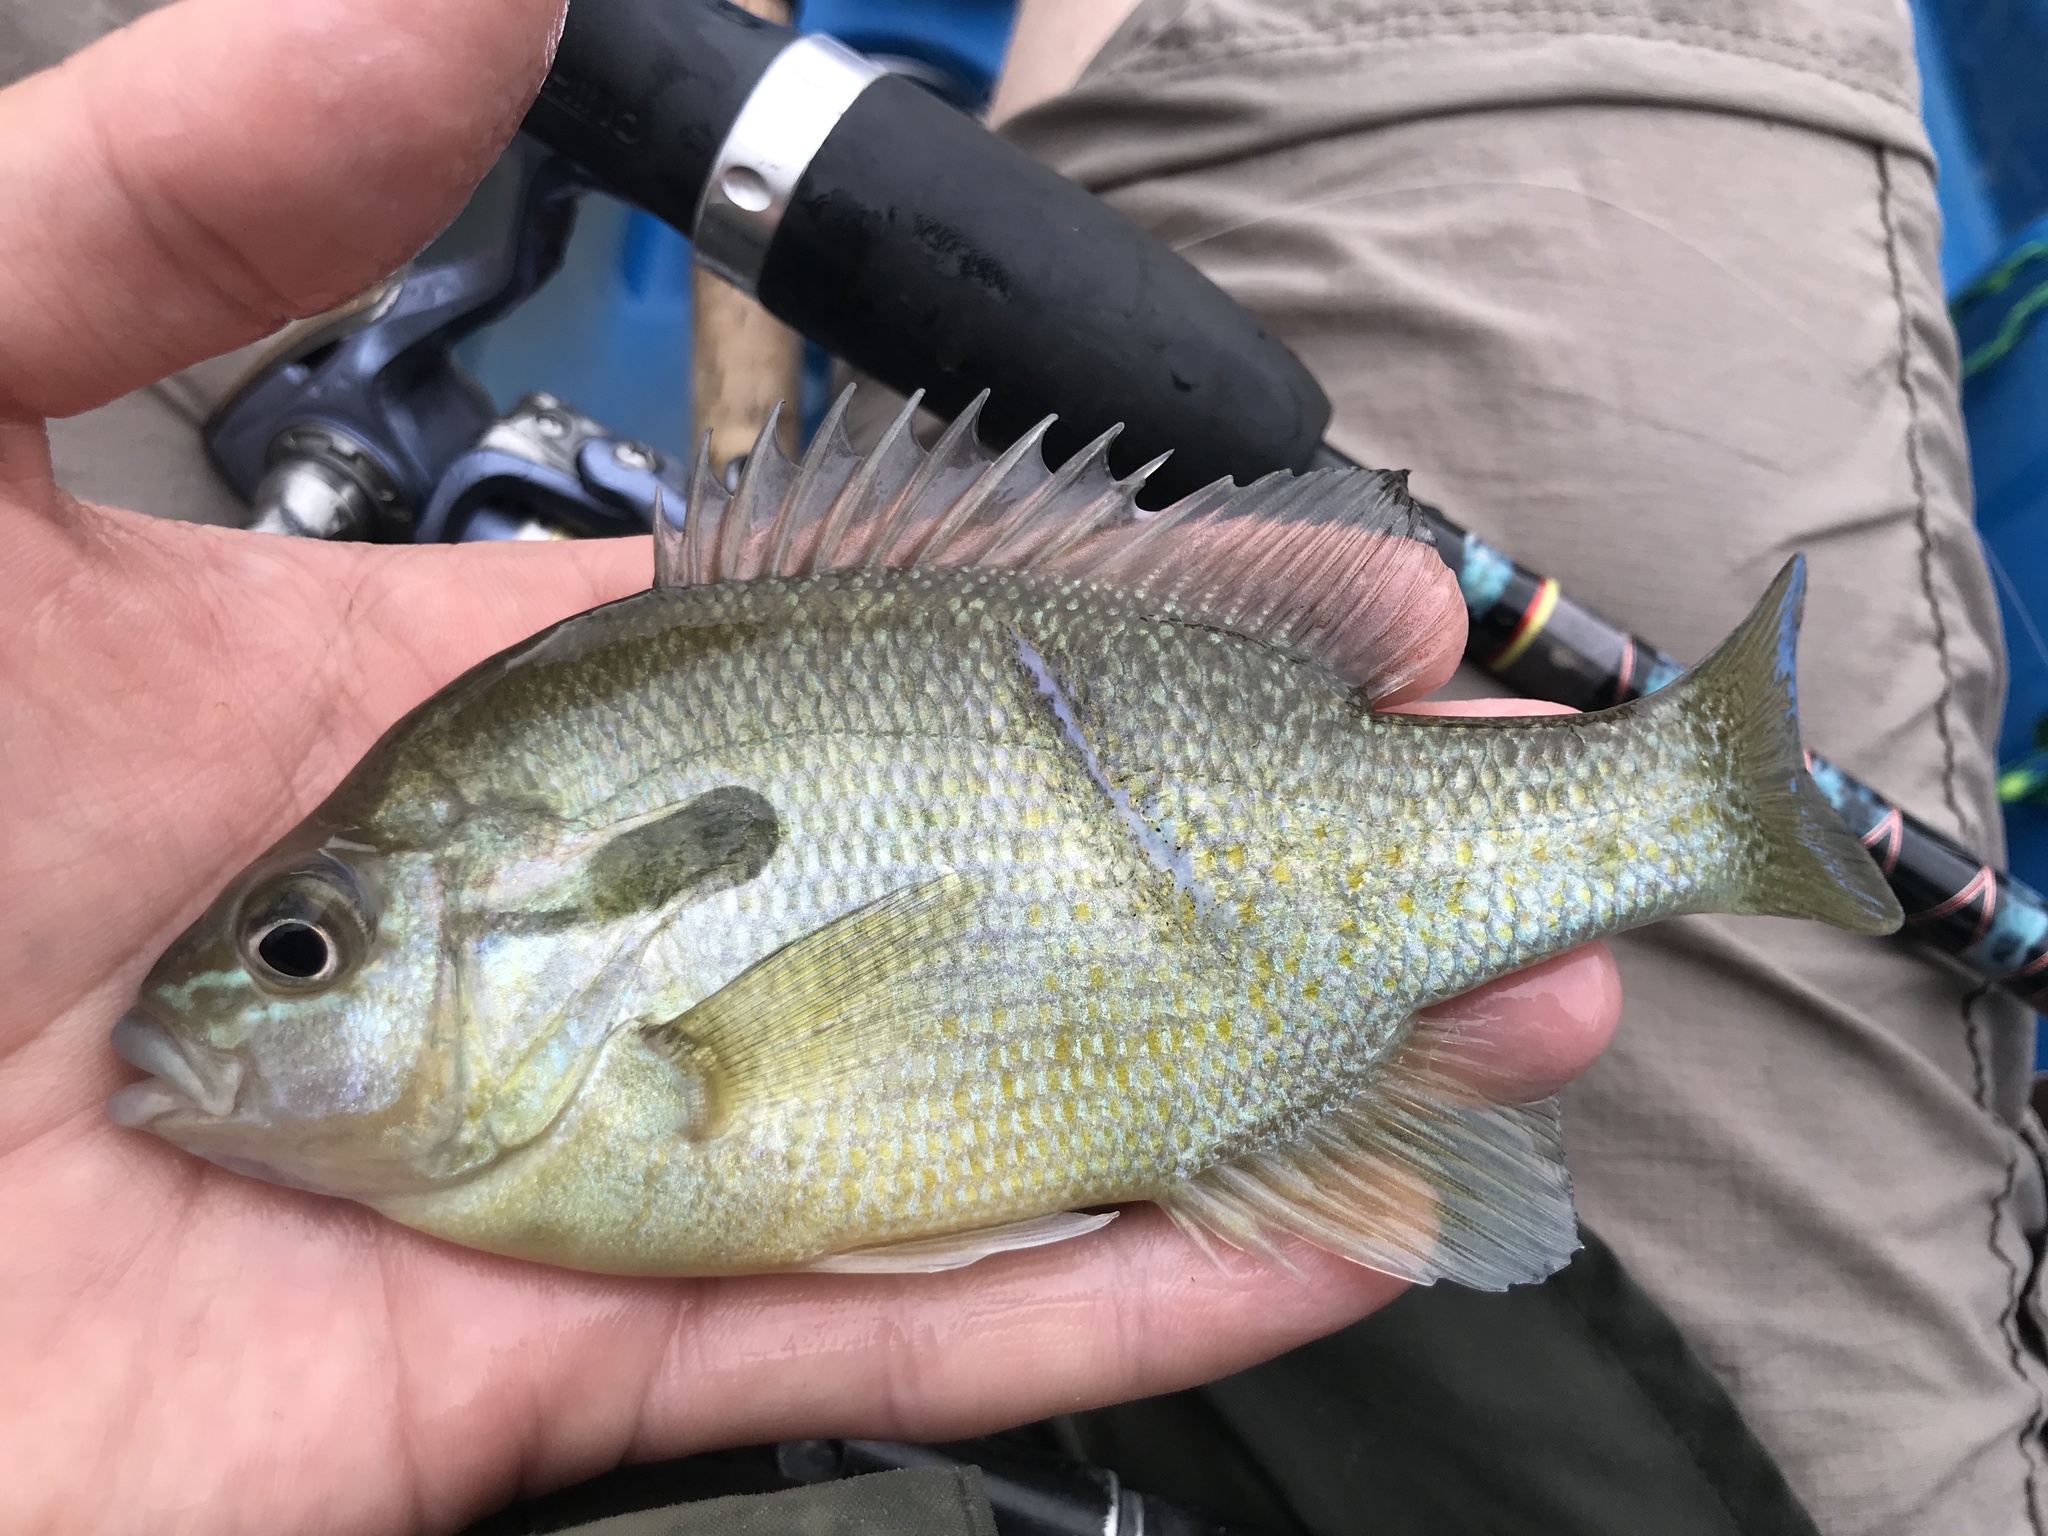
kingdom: Animalia
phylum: Chordata
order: Perciformes
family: Centrarchidae
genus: Lepomis
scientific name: Lepomis auritus
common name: Redbreast sunfish
